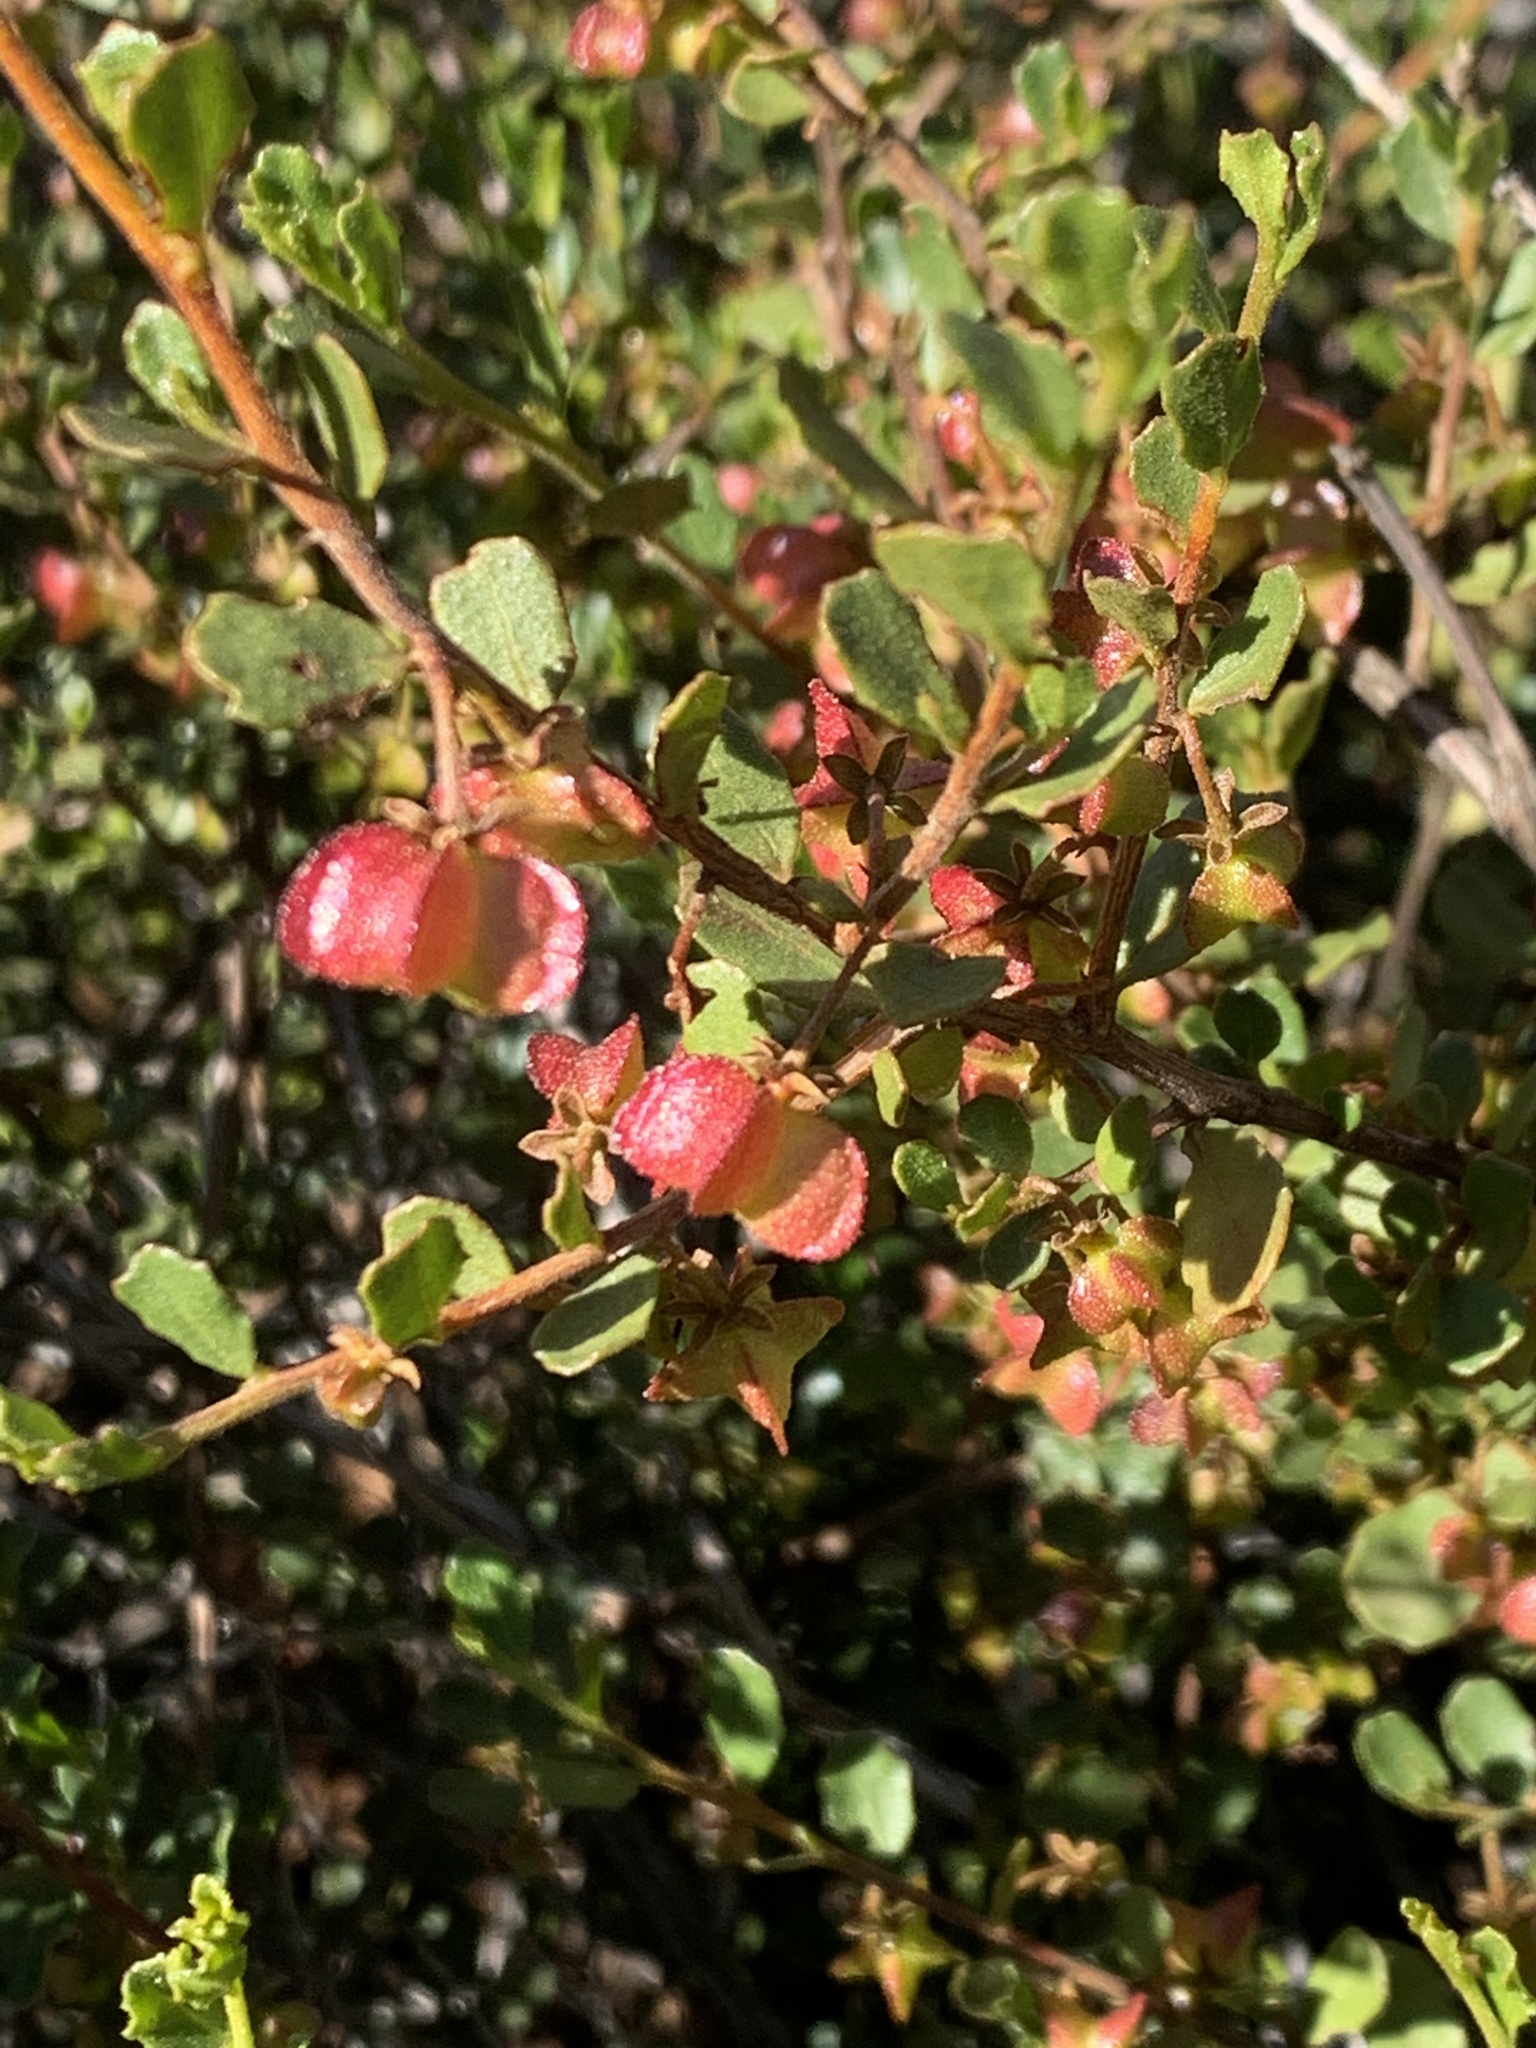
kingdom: Plantae
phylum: Tracheophyta
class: Magnoliopsida
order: Sapindales
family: Sapindaceae
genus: Dodonaea
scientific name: Dodonaea baueri
